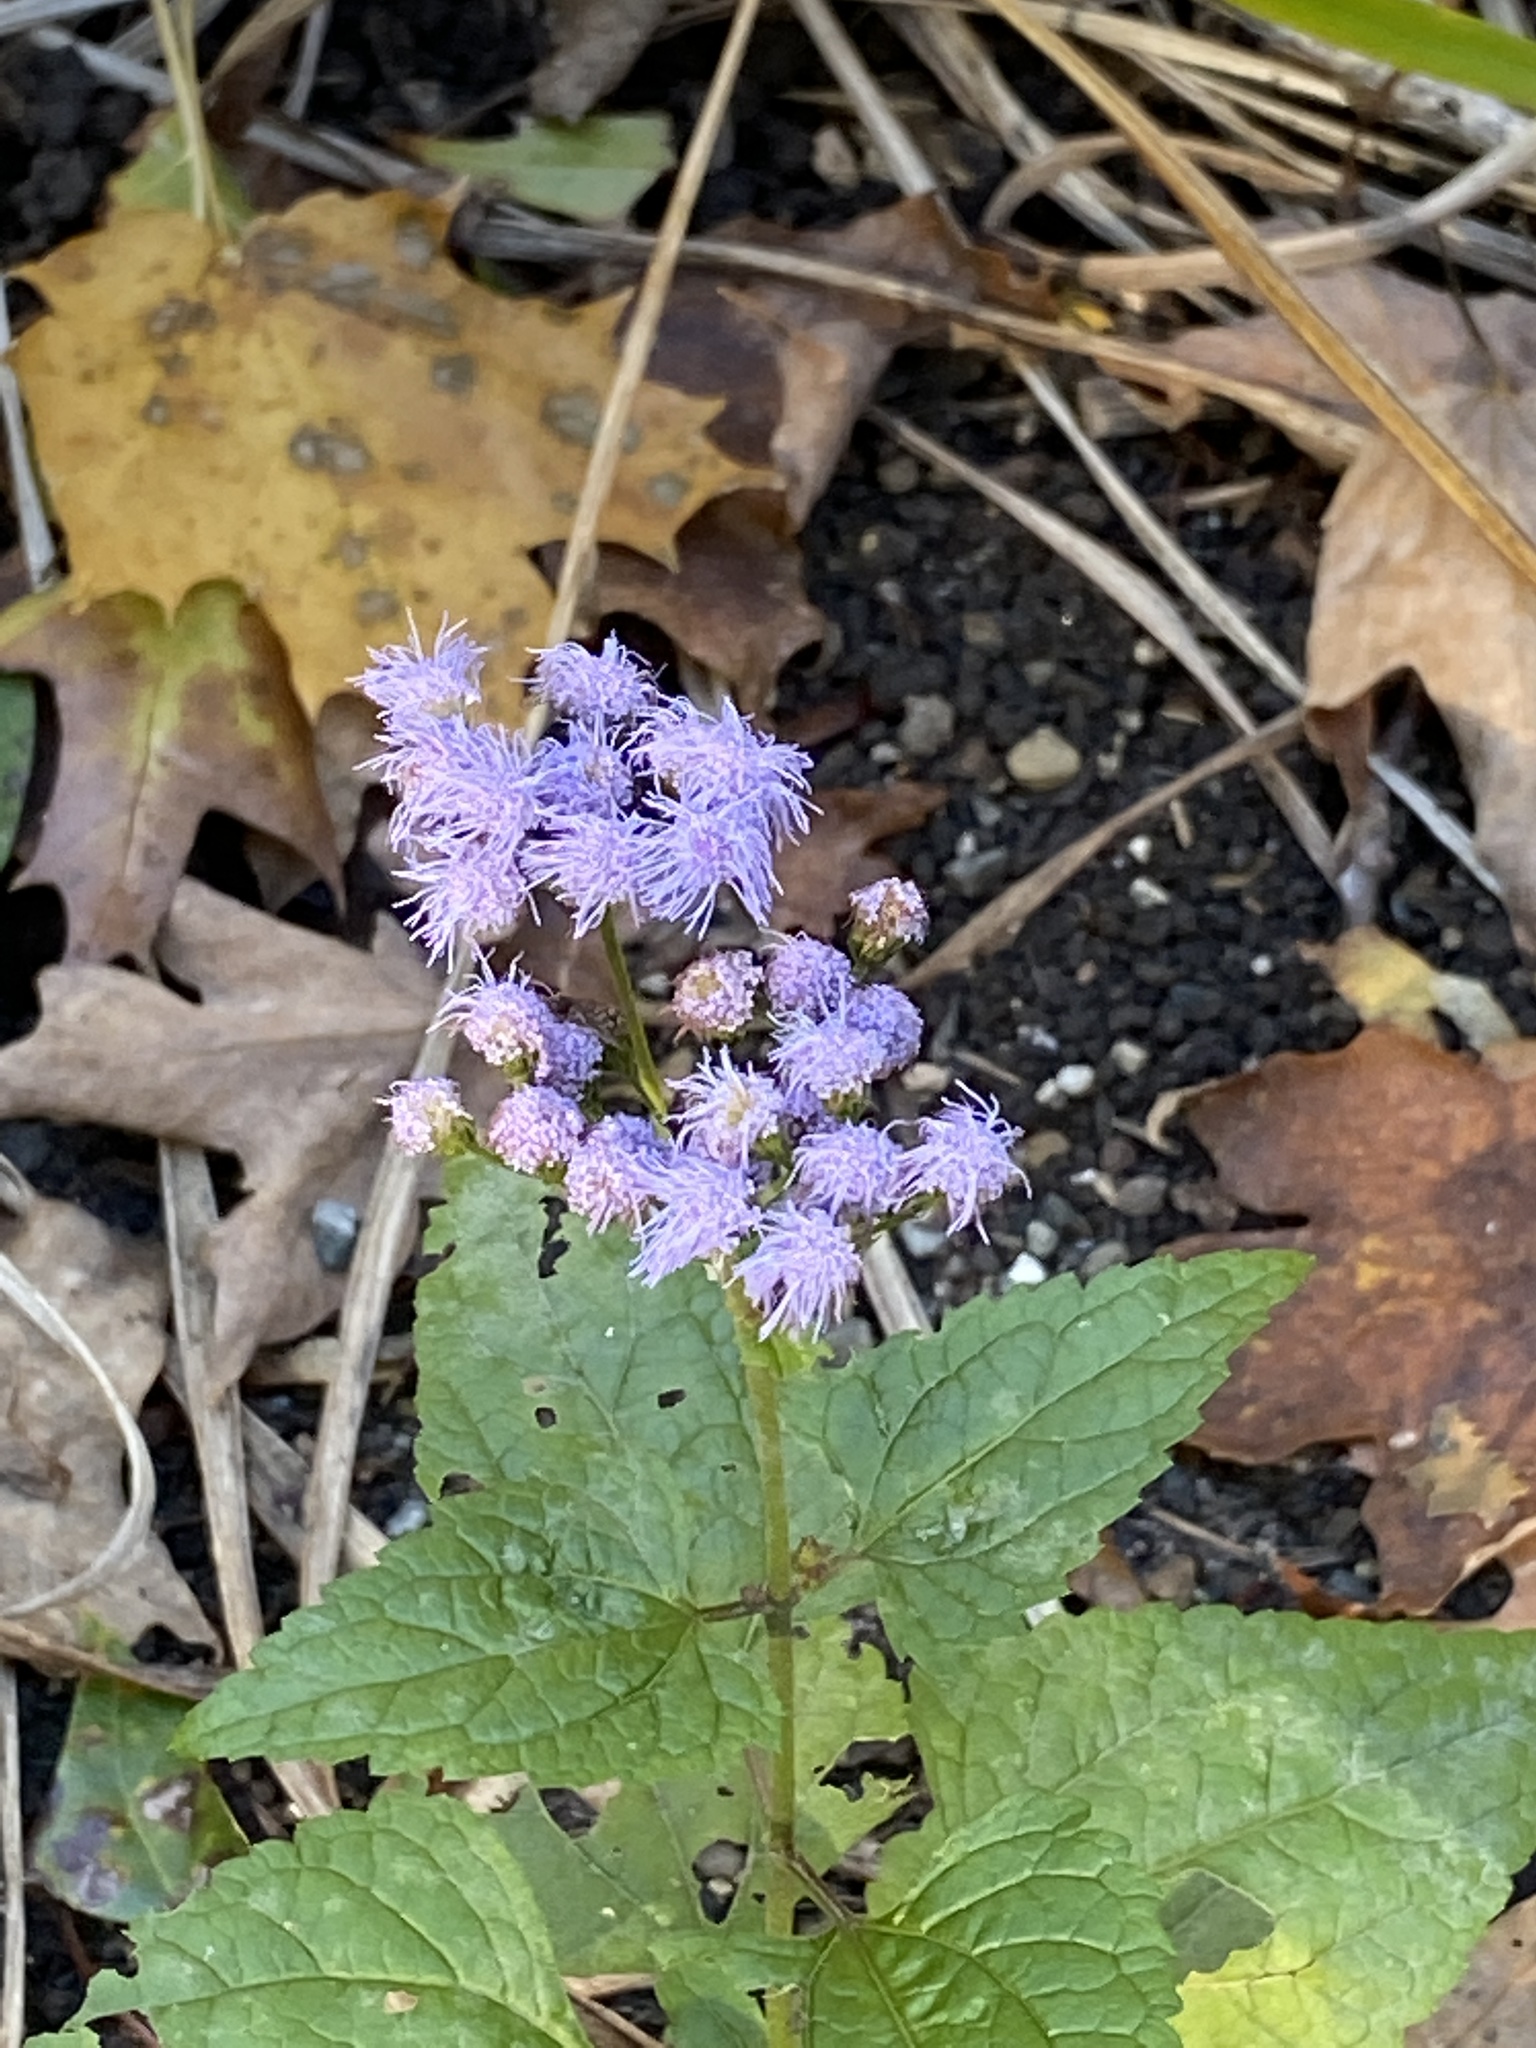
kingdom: Plantae
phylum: Tracheophyta
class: Magnoliopsida
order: Asterales
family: Asteraceae
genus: Conoclinium
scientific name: Conoclinium coelestinum
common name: Blue mistflower
